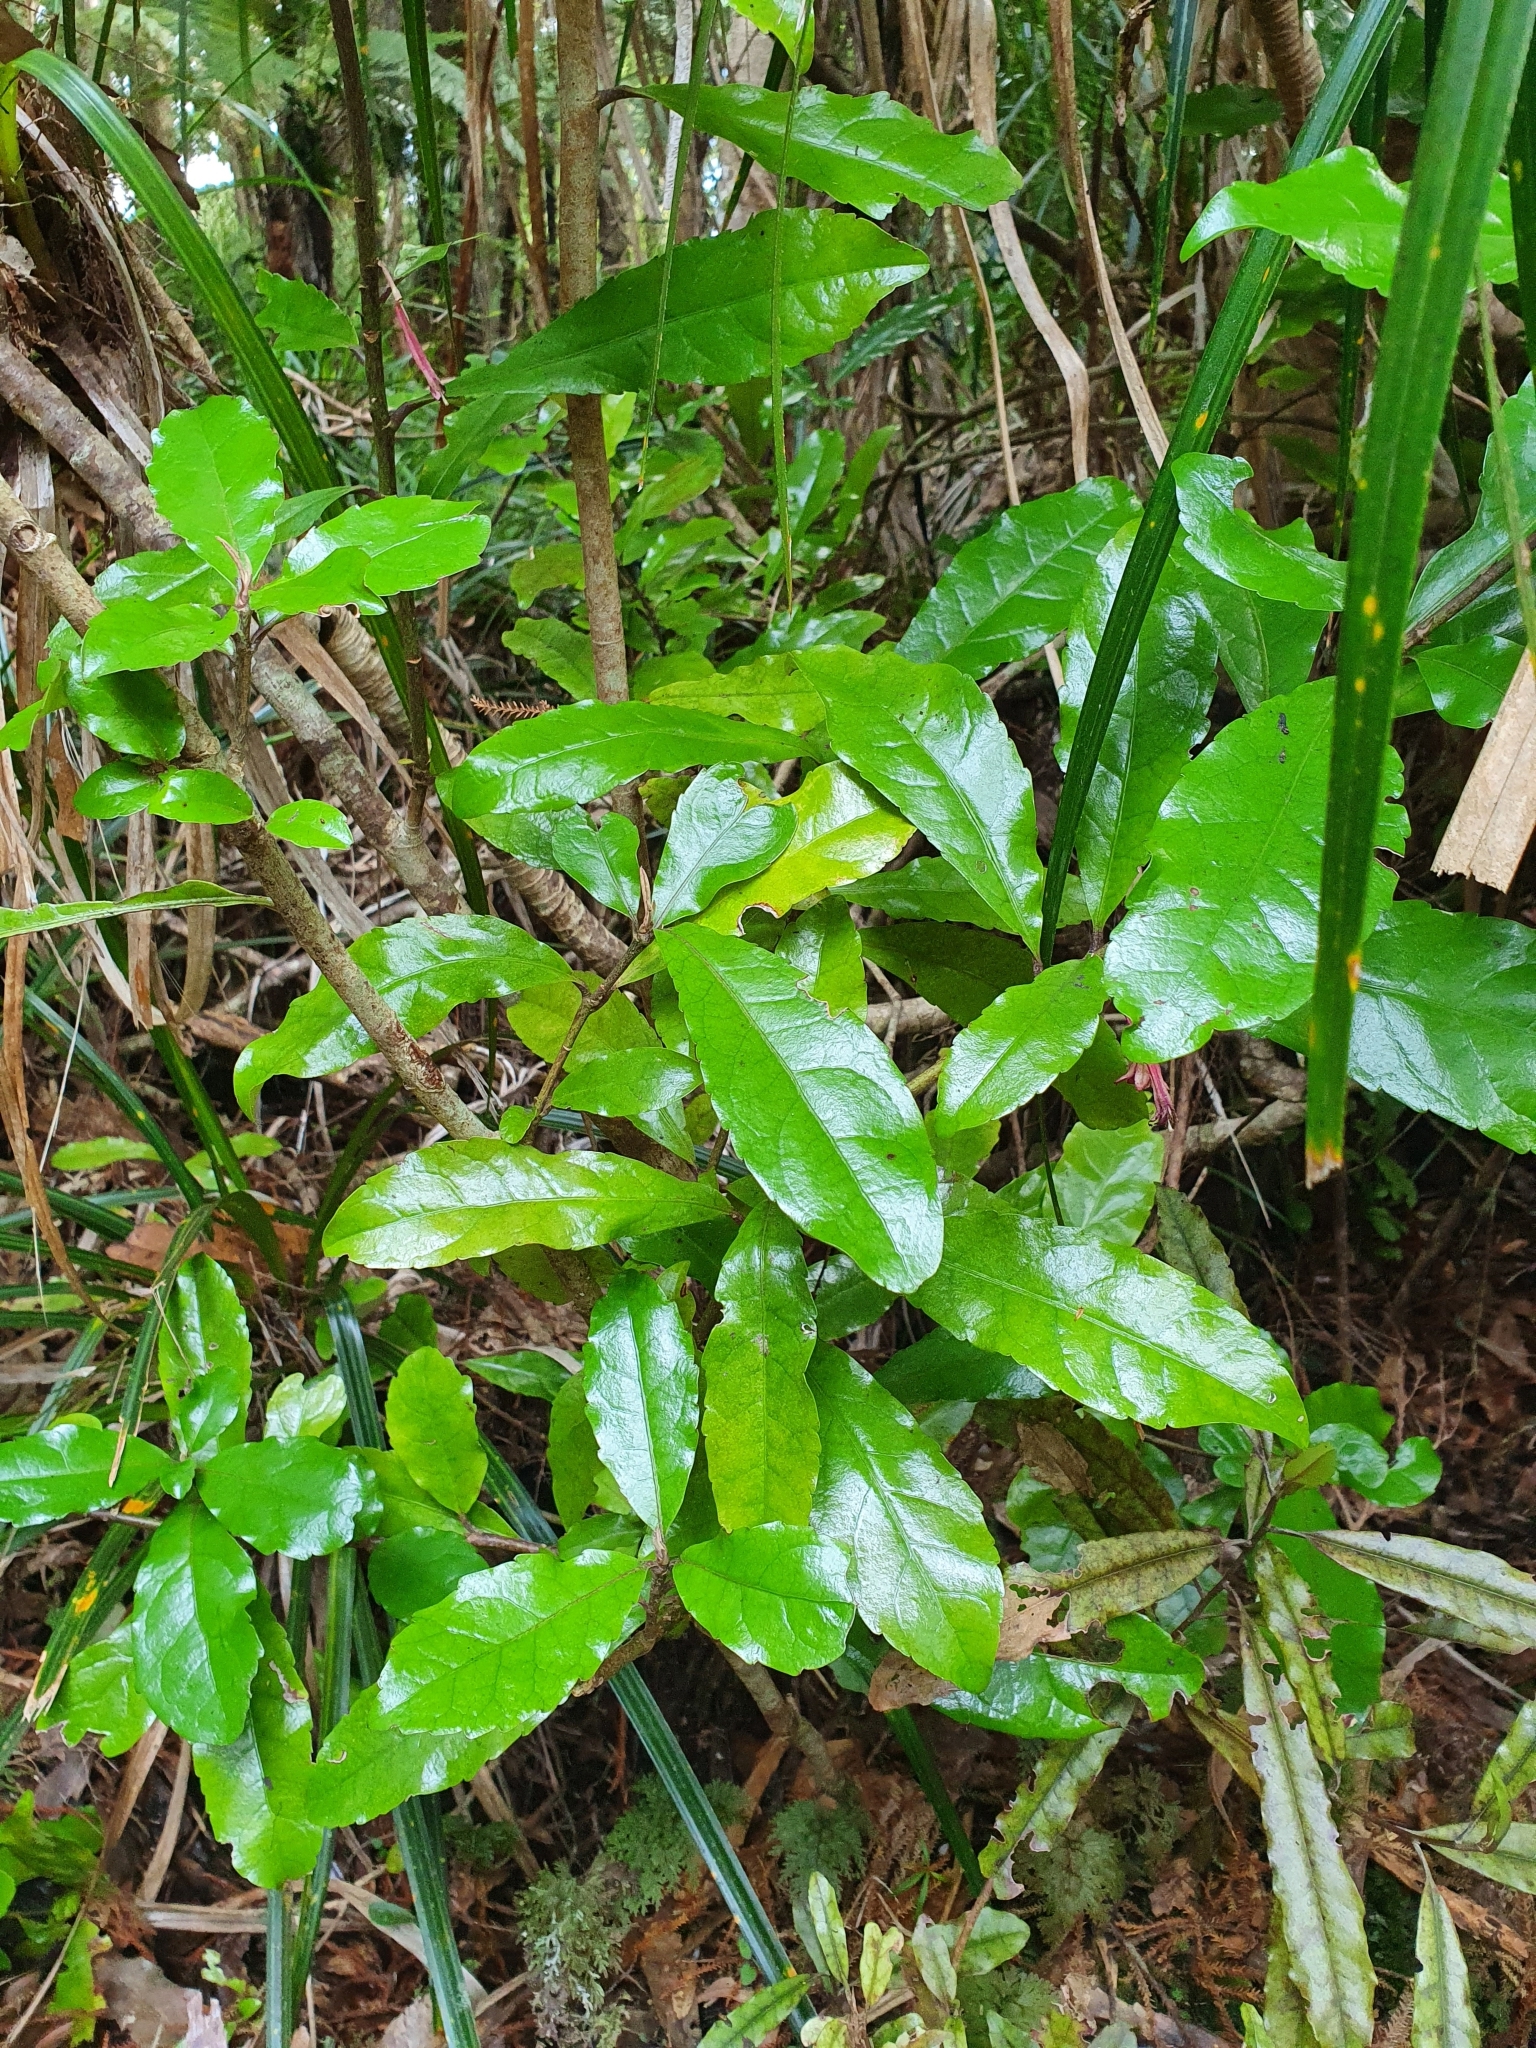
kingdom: Plantae
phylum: Tracheophyta
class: Magnoliopsida
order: Asterales
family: Alseuosmiaceae
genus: Alseuosmia
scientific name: Alseuosmia macrophylla
